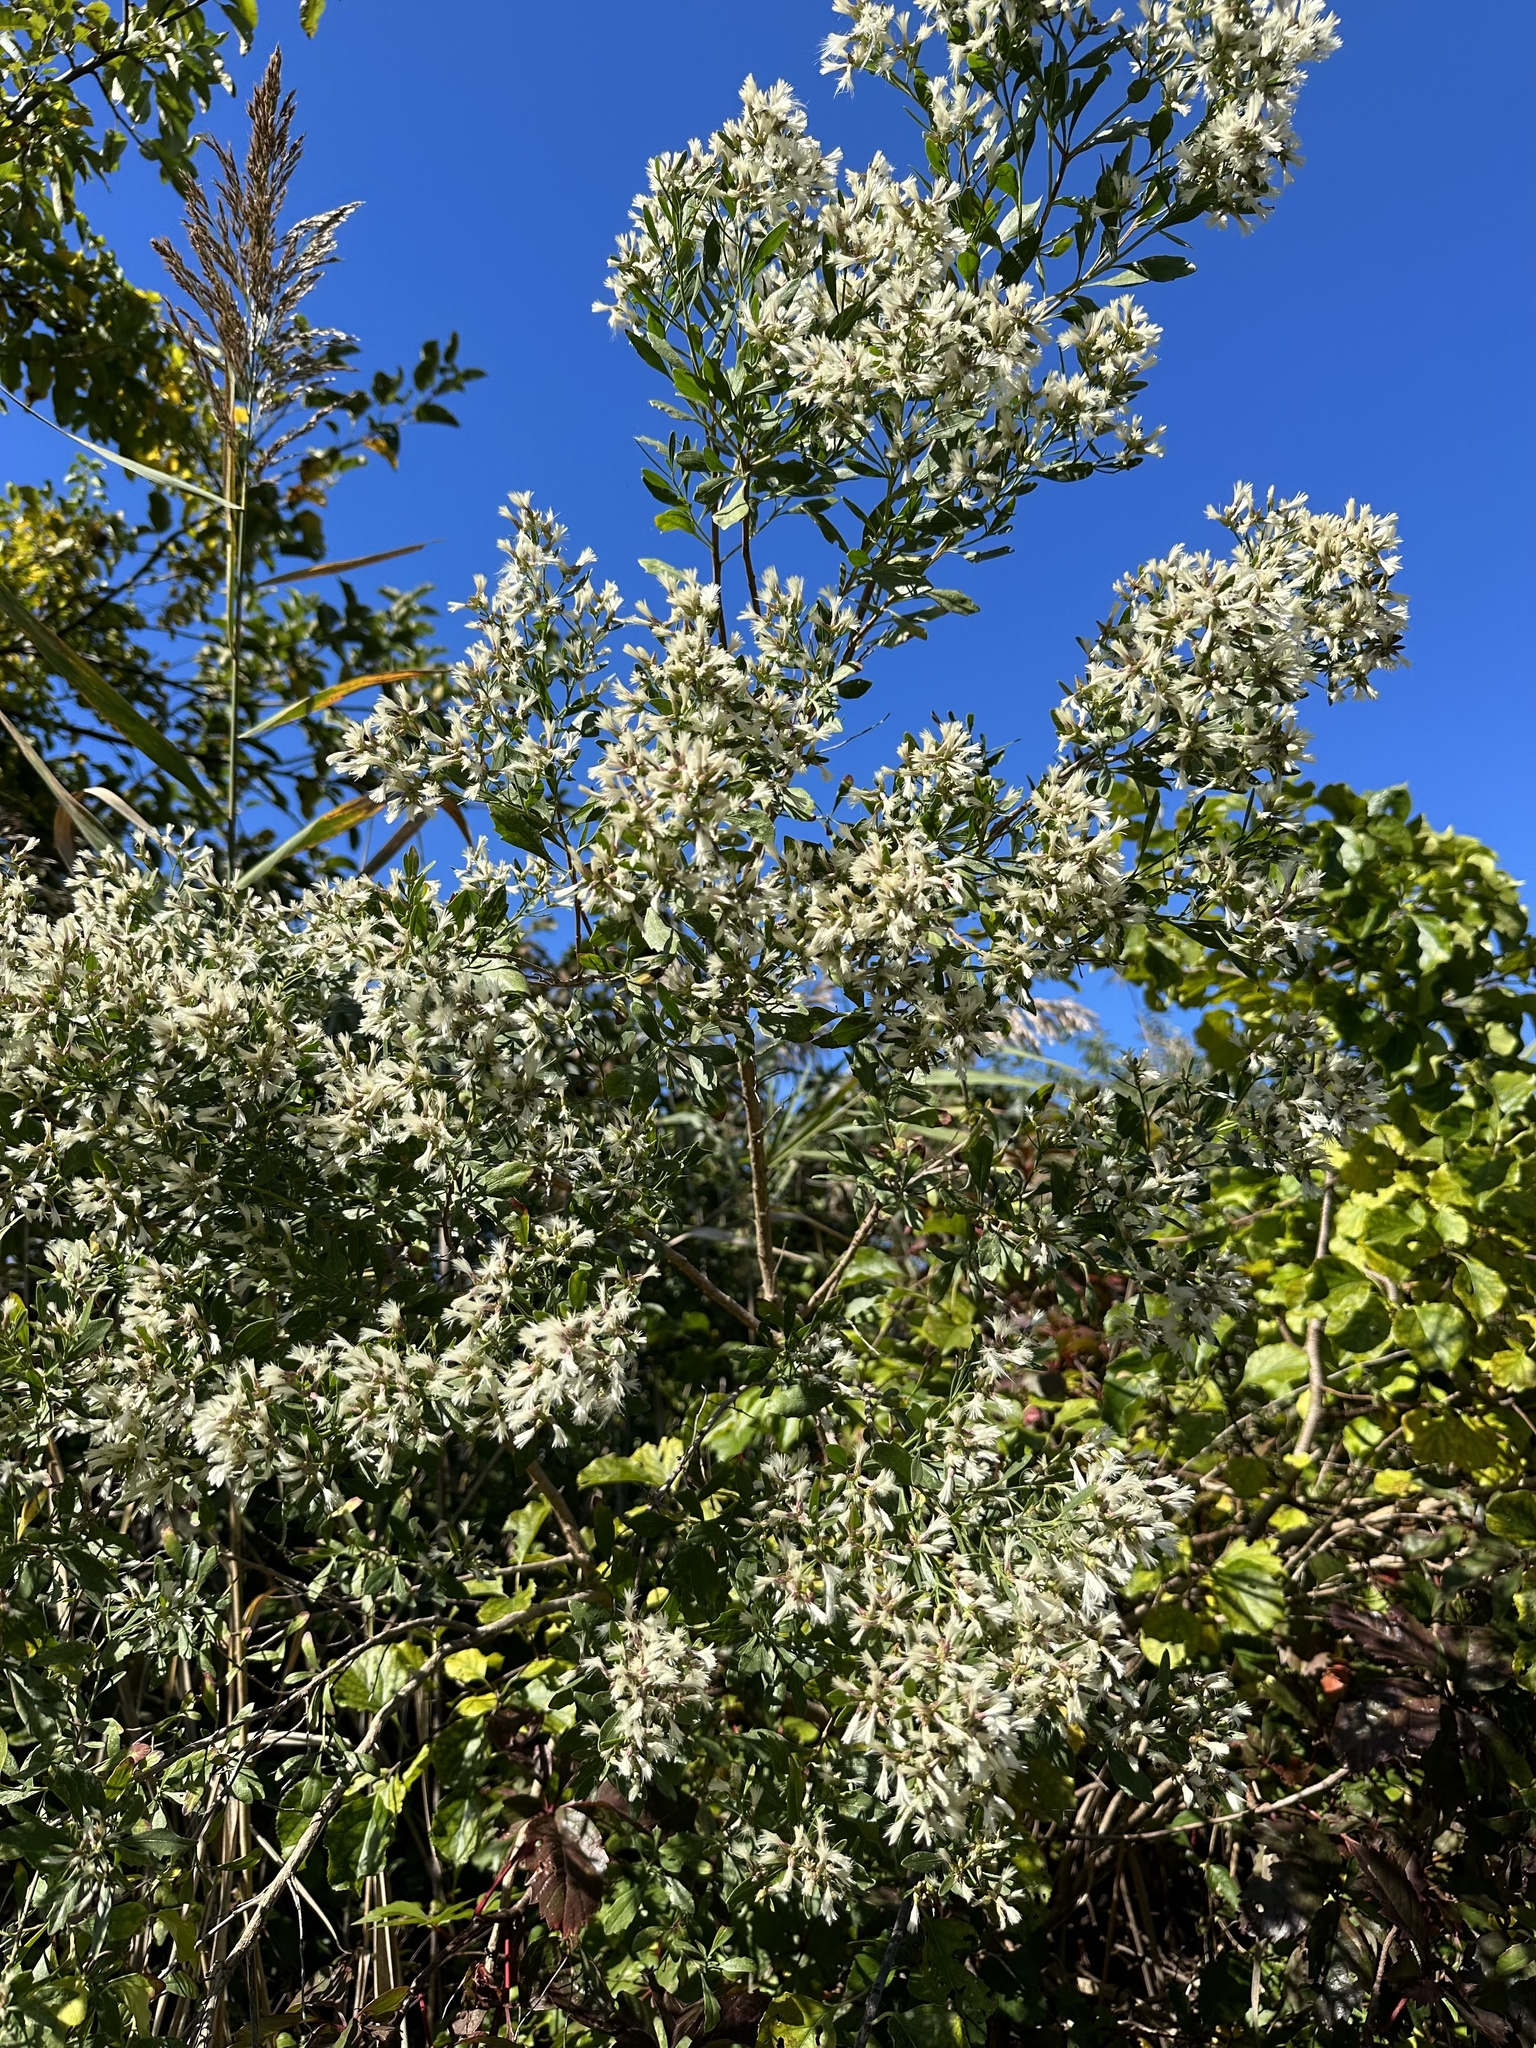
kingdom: Plantae
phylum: Tracheophyta
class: Magnoliopsida
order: Asterales
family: Asteraceae
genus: Baccharis
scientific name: Baccharis halimifolia
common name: Eastern baccharis
